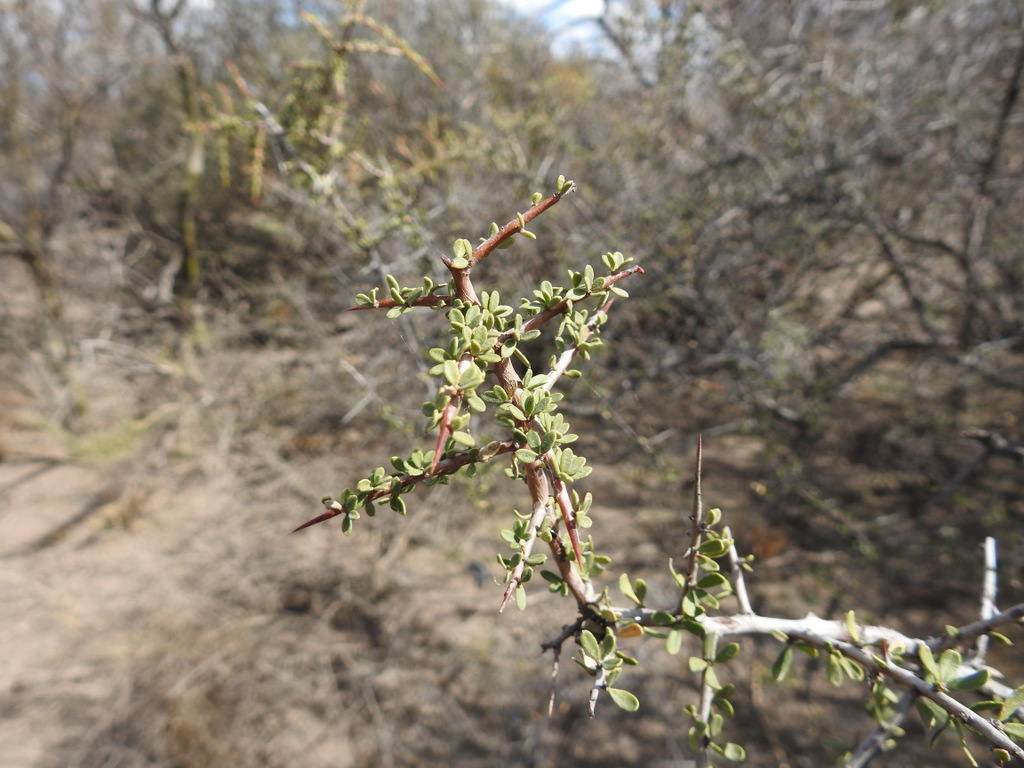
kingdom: Plantae
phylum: Tracheophyta
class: Magnoliopsida
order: Rosales
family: Rhamnaceae
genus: Condalia
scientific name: Condalia microphylla
